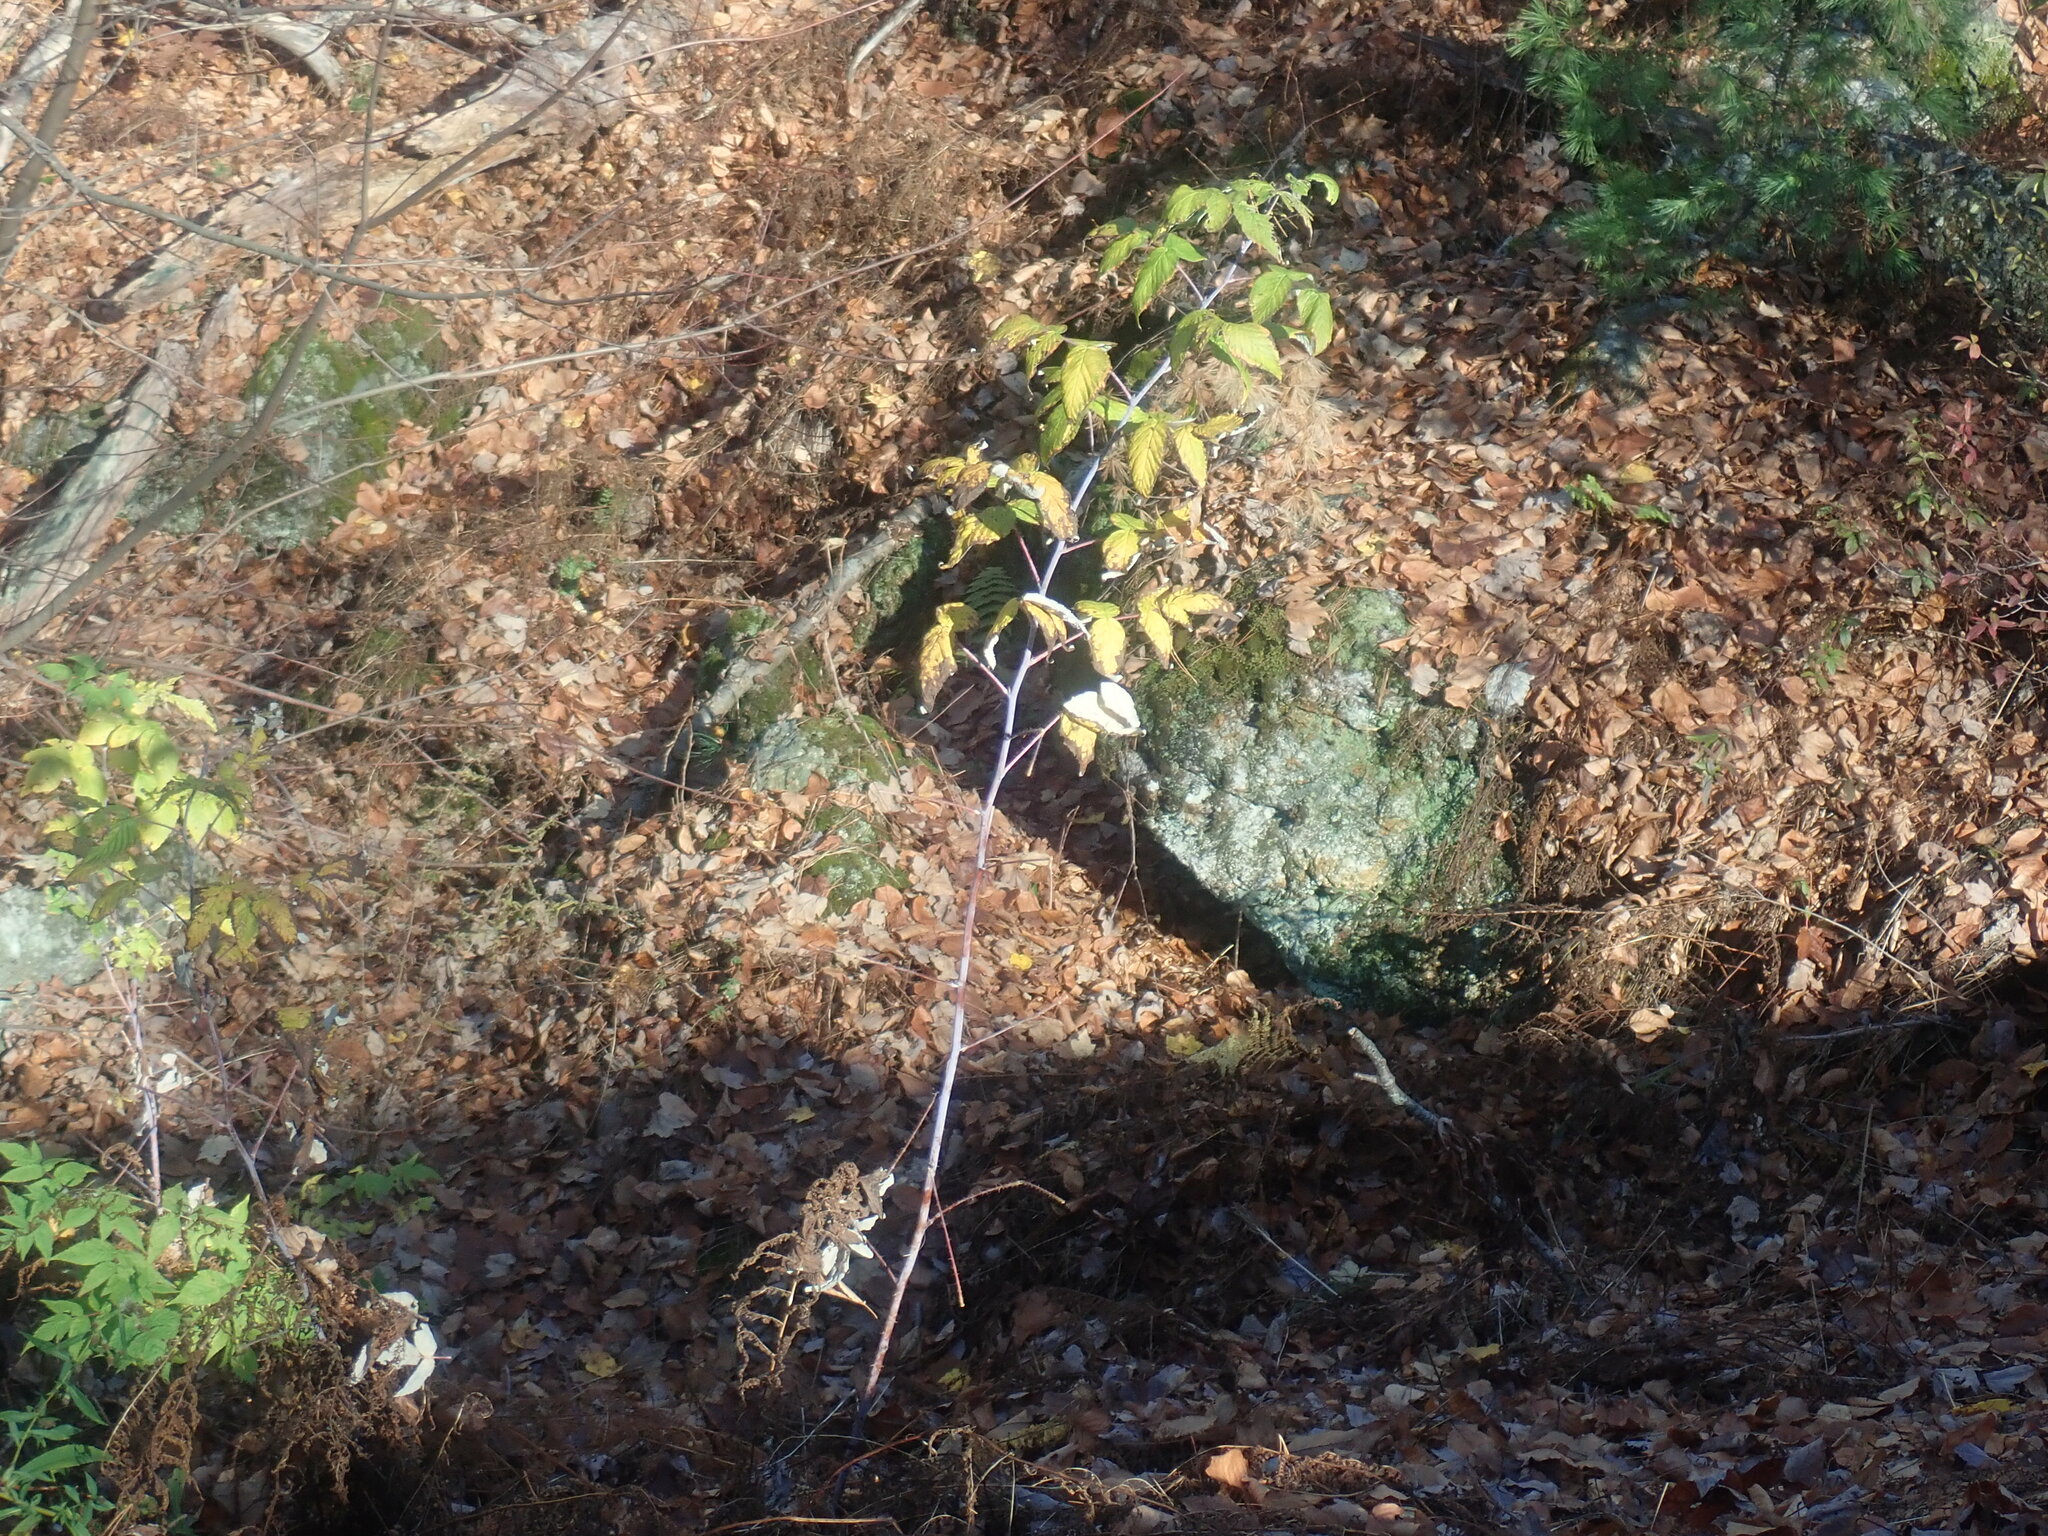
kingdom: Plantae
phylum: Tracheophyta
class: Magnoliopsida
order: Rosales
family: Rosaceae
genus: Rubus
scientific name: Rubus occidentalis
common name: Black raspberry
